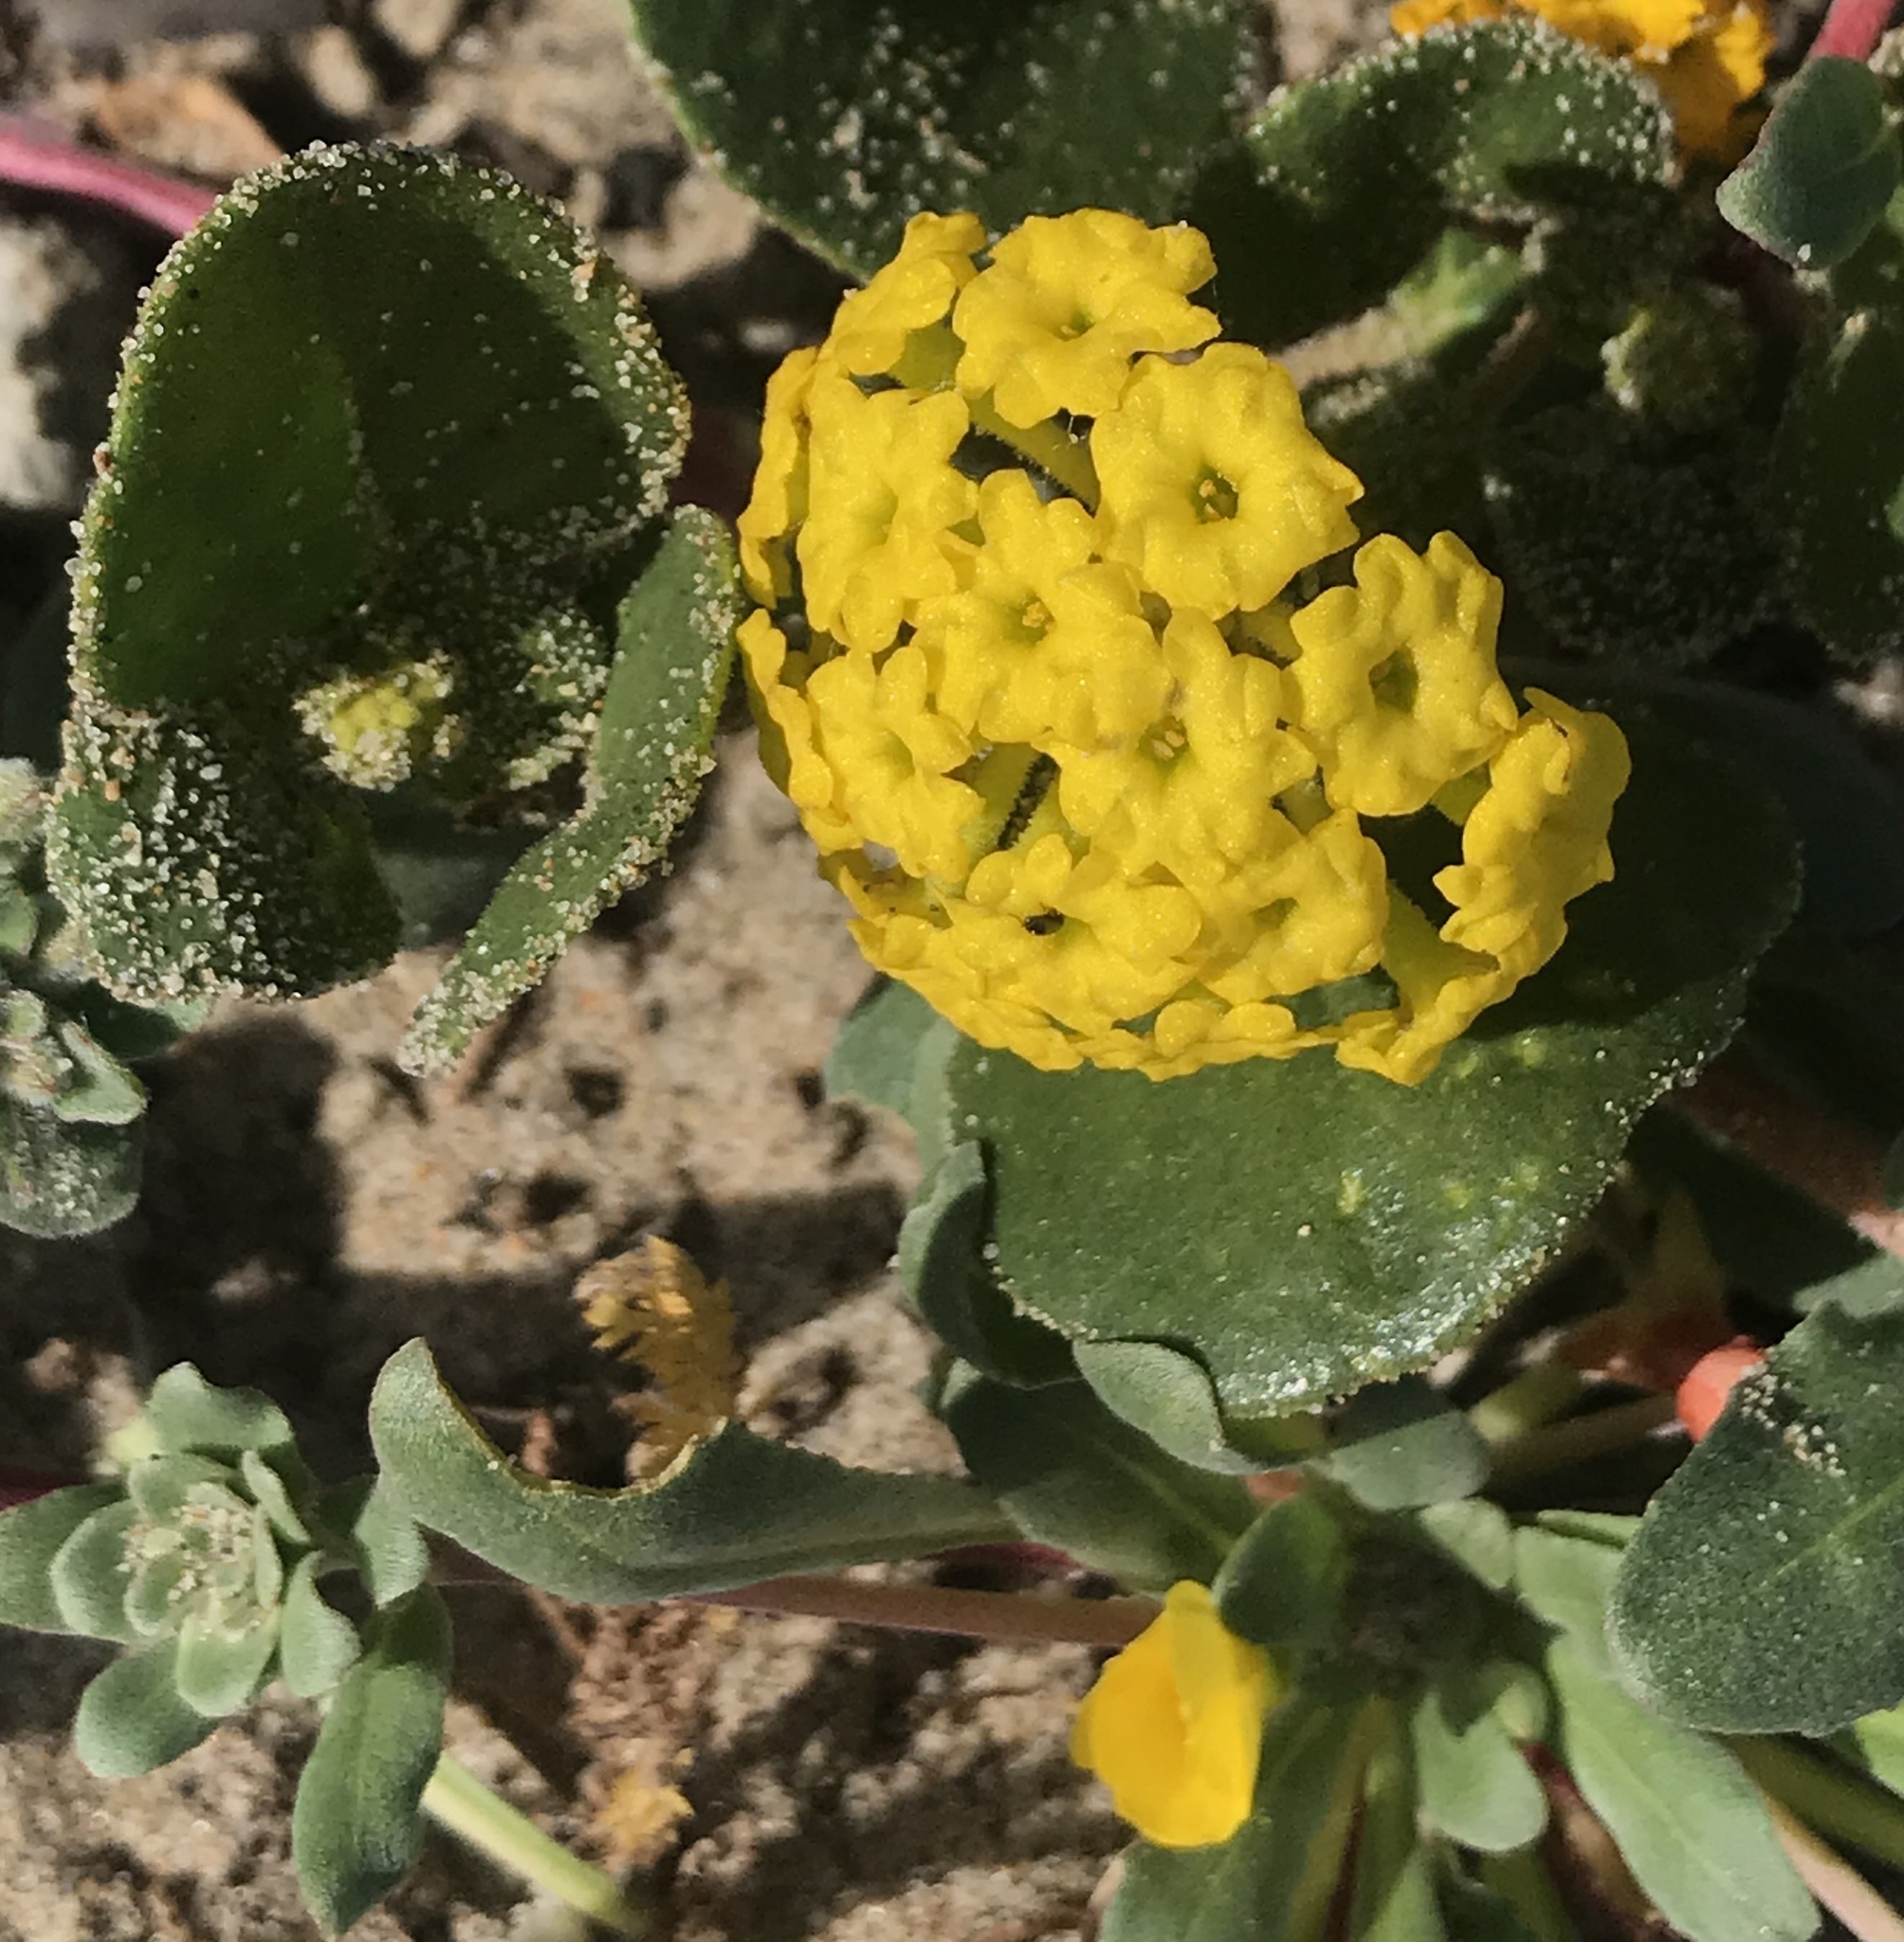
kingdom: Plantae
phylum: Tracheophyta
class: Magnoliopsida
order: Caryophyllales
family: Nyctaginaceae
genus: Abronia
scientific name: Abronia latifolia
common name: Yellow sand-verbena
